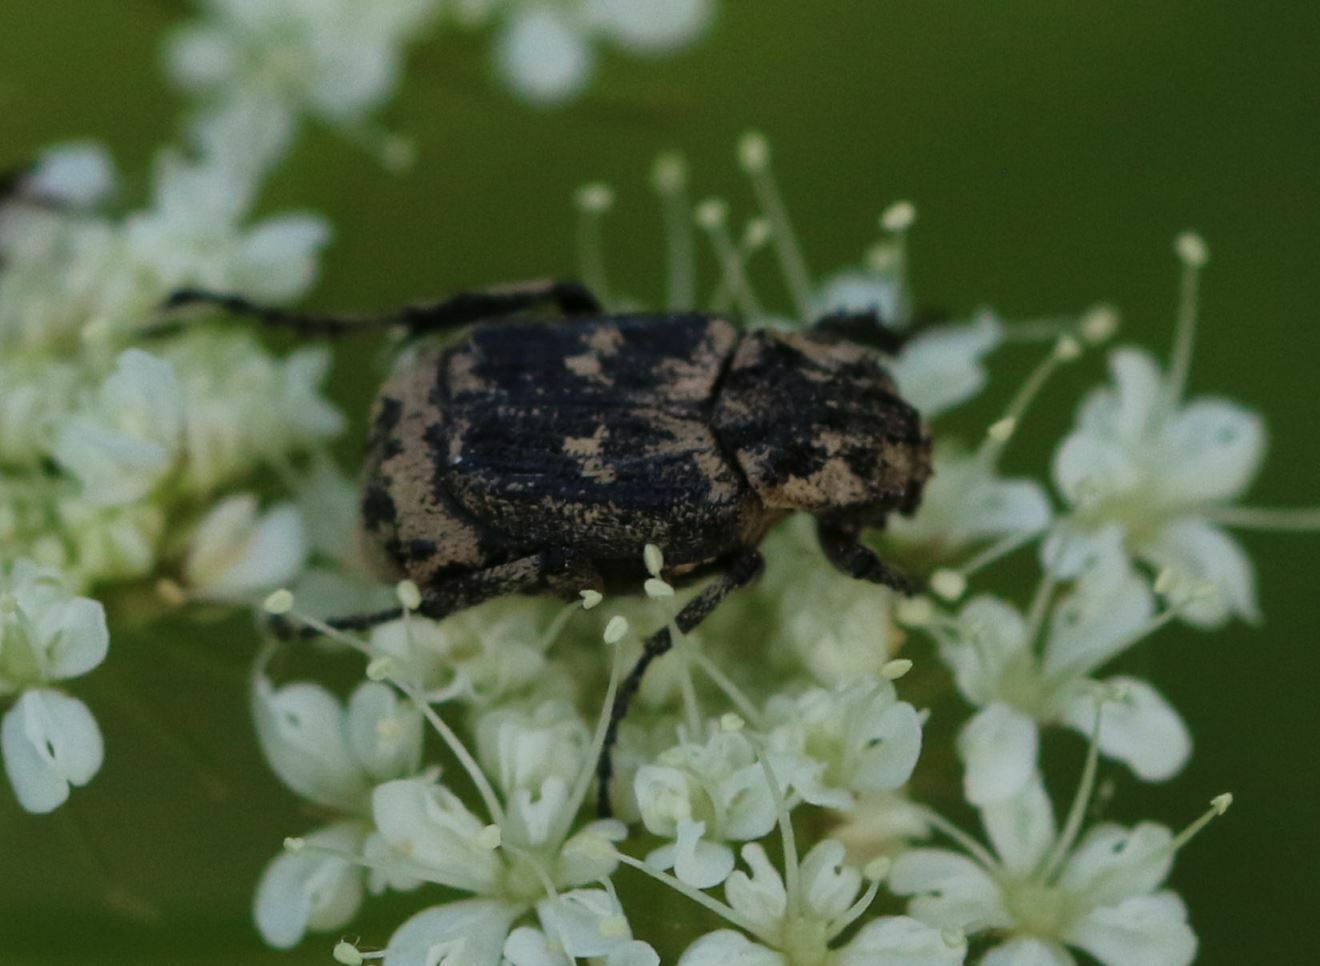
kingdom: Animalia
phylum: Arthropoda
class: Insecta
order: Coleoptera
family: Scarabaeidae
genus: Valgus
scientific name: Valgus hemipterus
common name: Bug flower chafer
